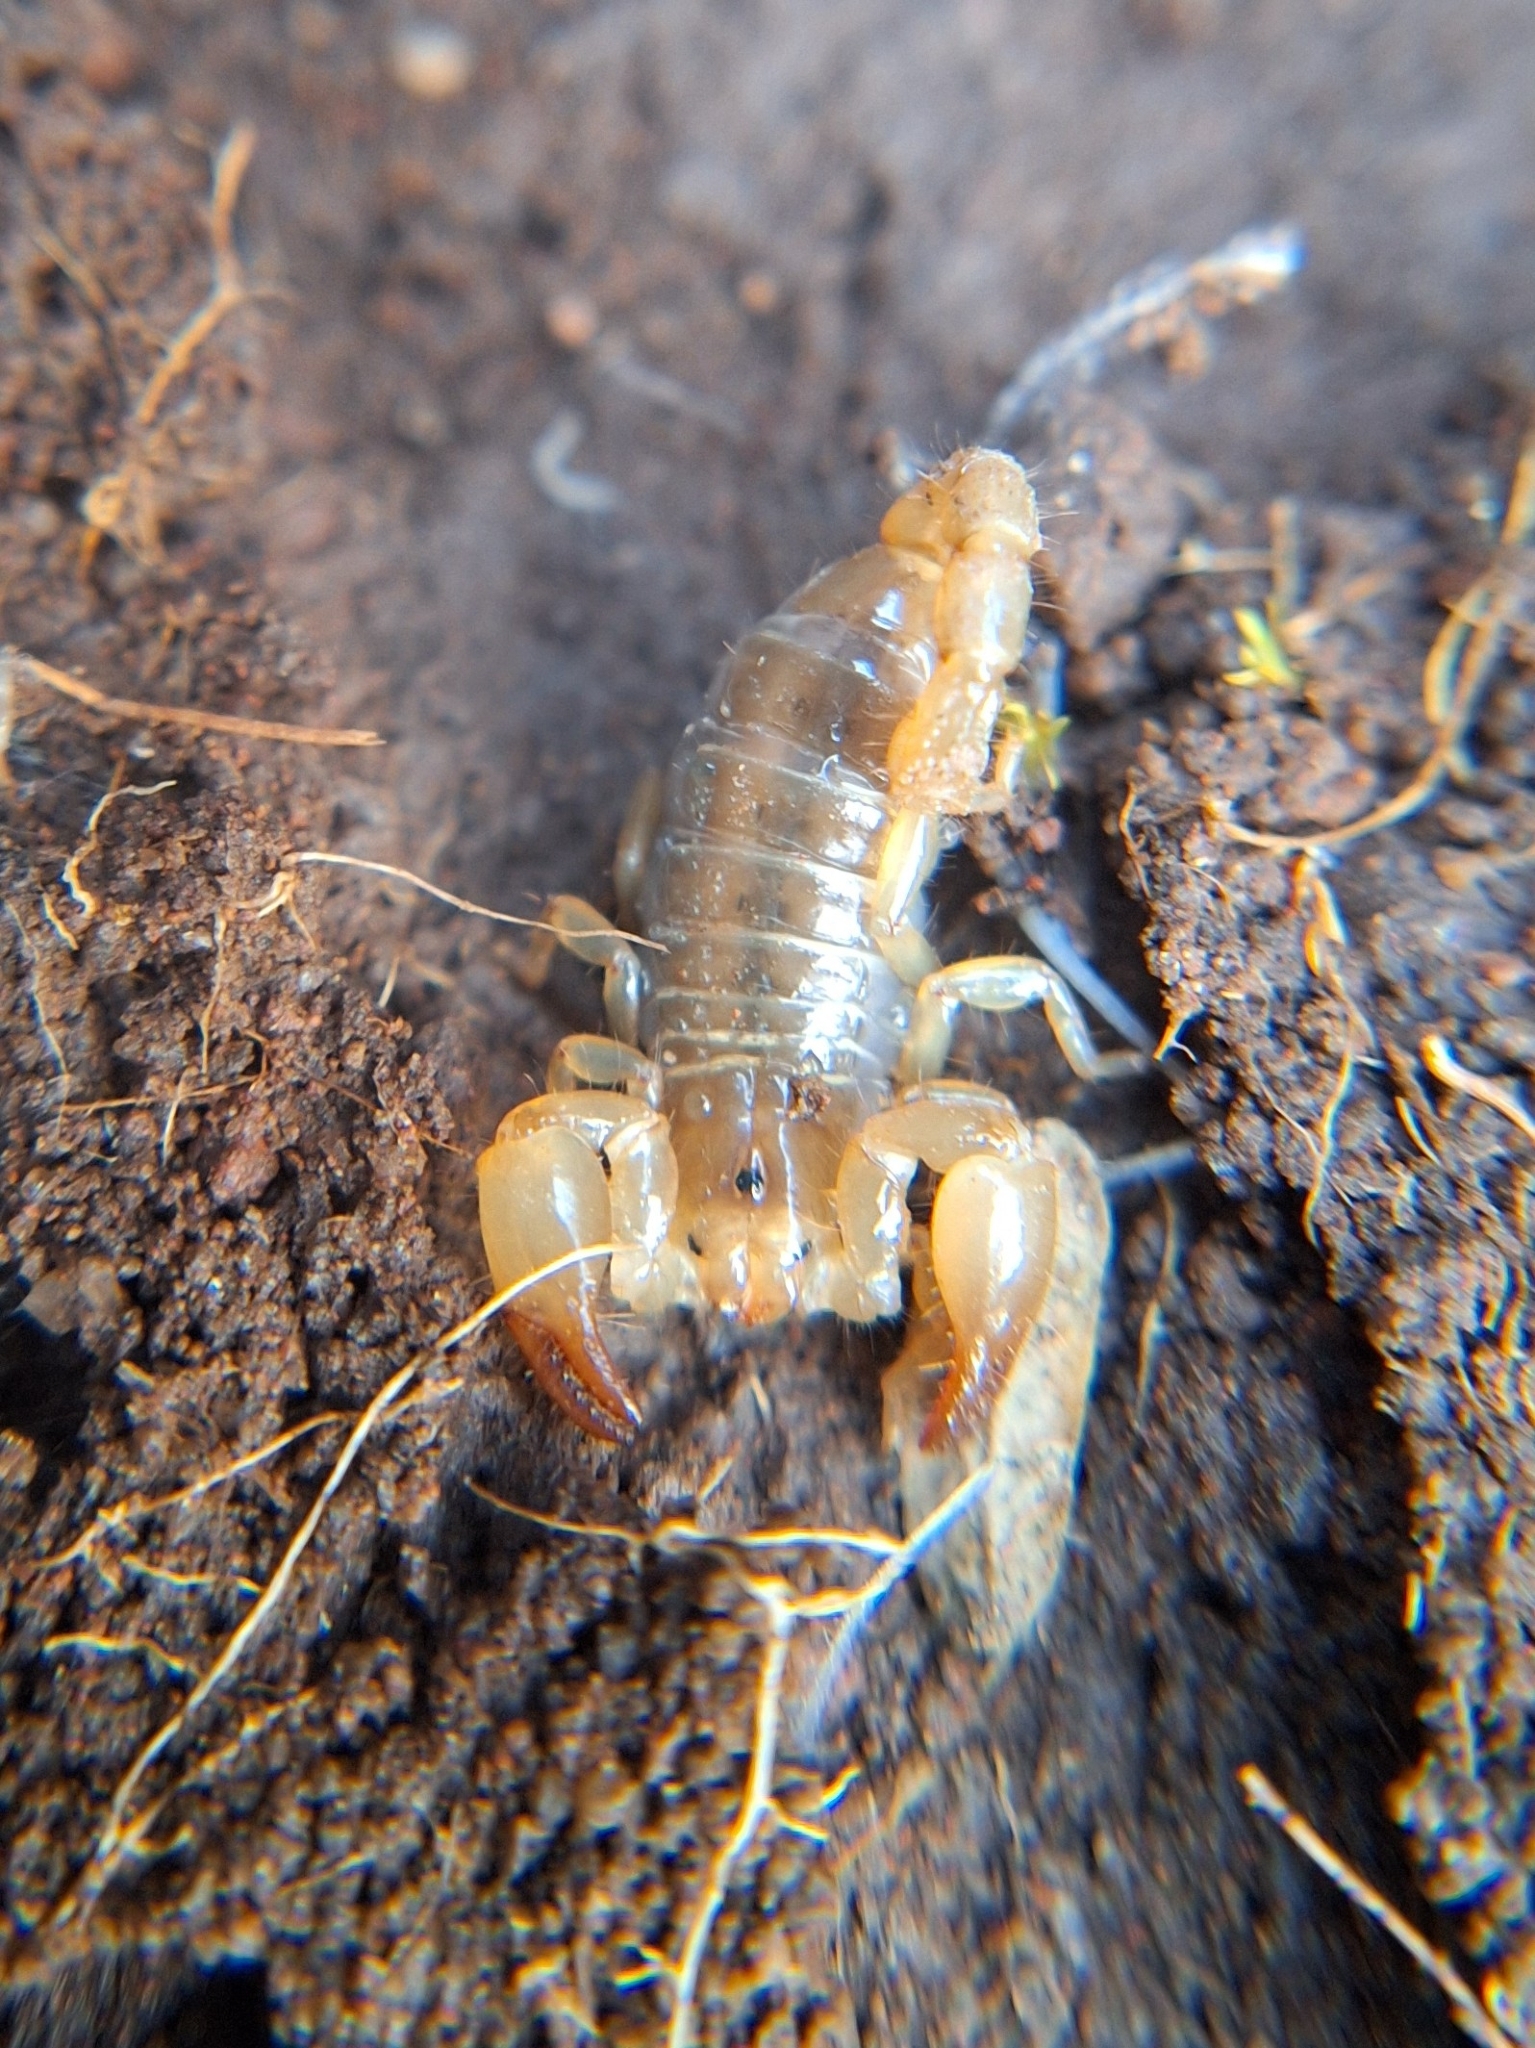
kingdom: Animalia
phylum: Arthropoda
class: Arachnida
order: Scorpiones
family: Diplocentridae
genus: Diplocentrus
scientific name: Diplocentrus spitzeri
